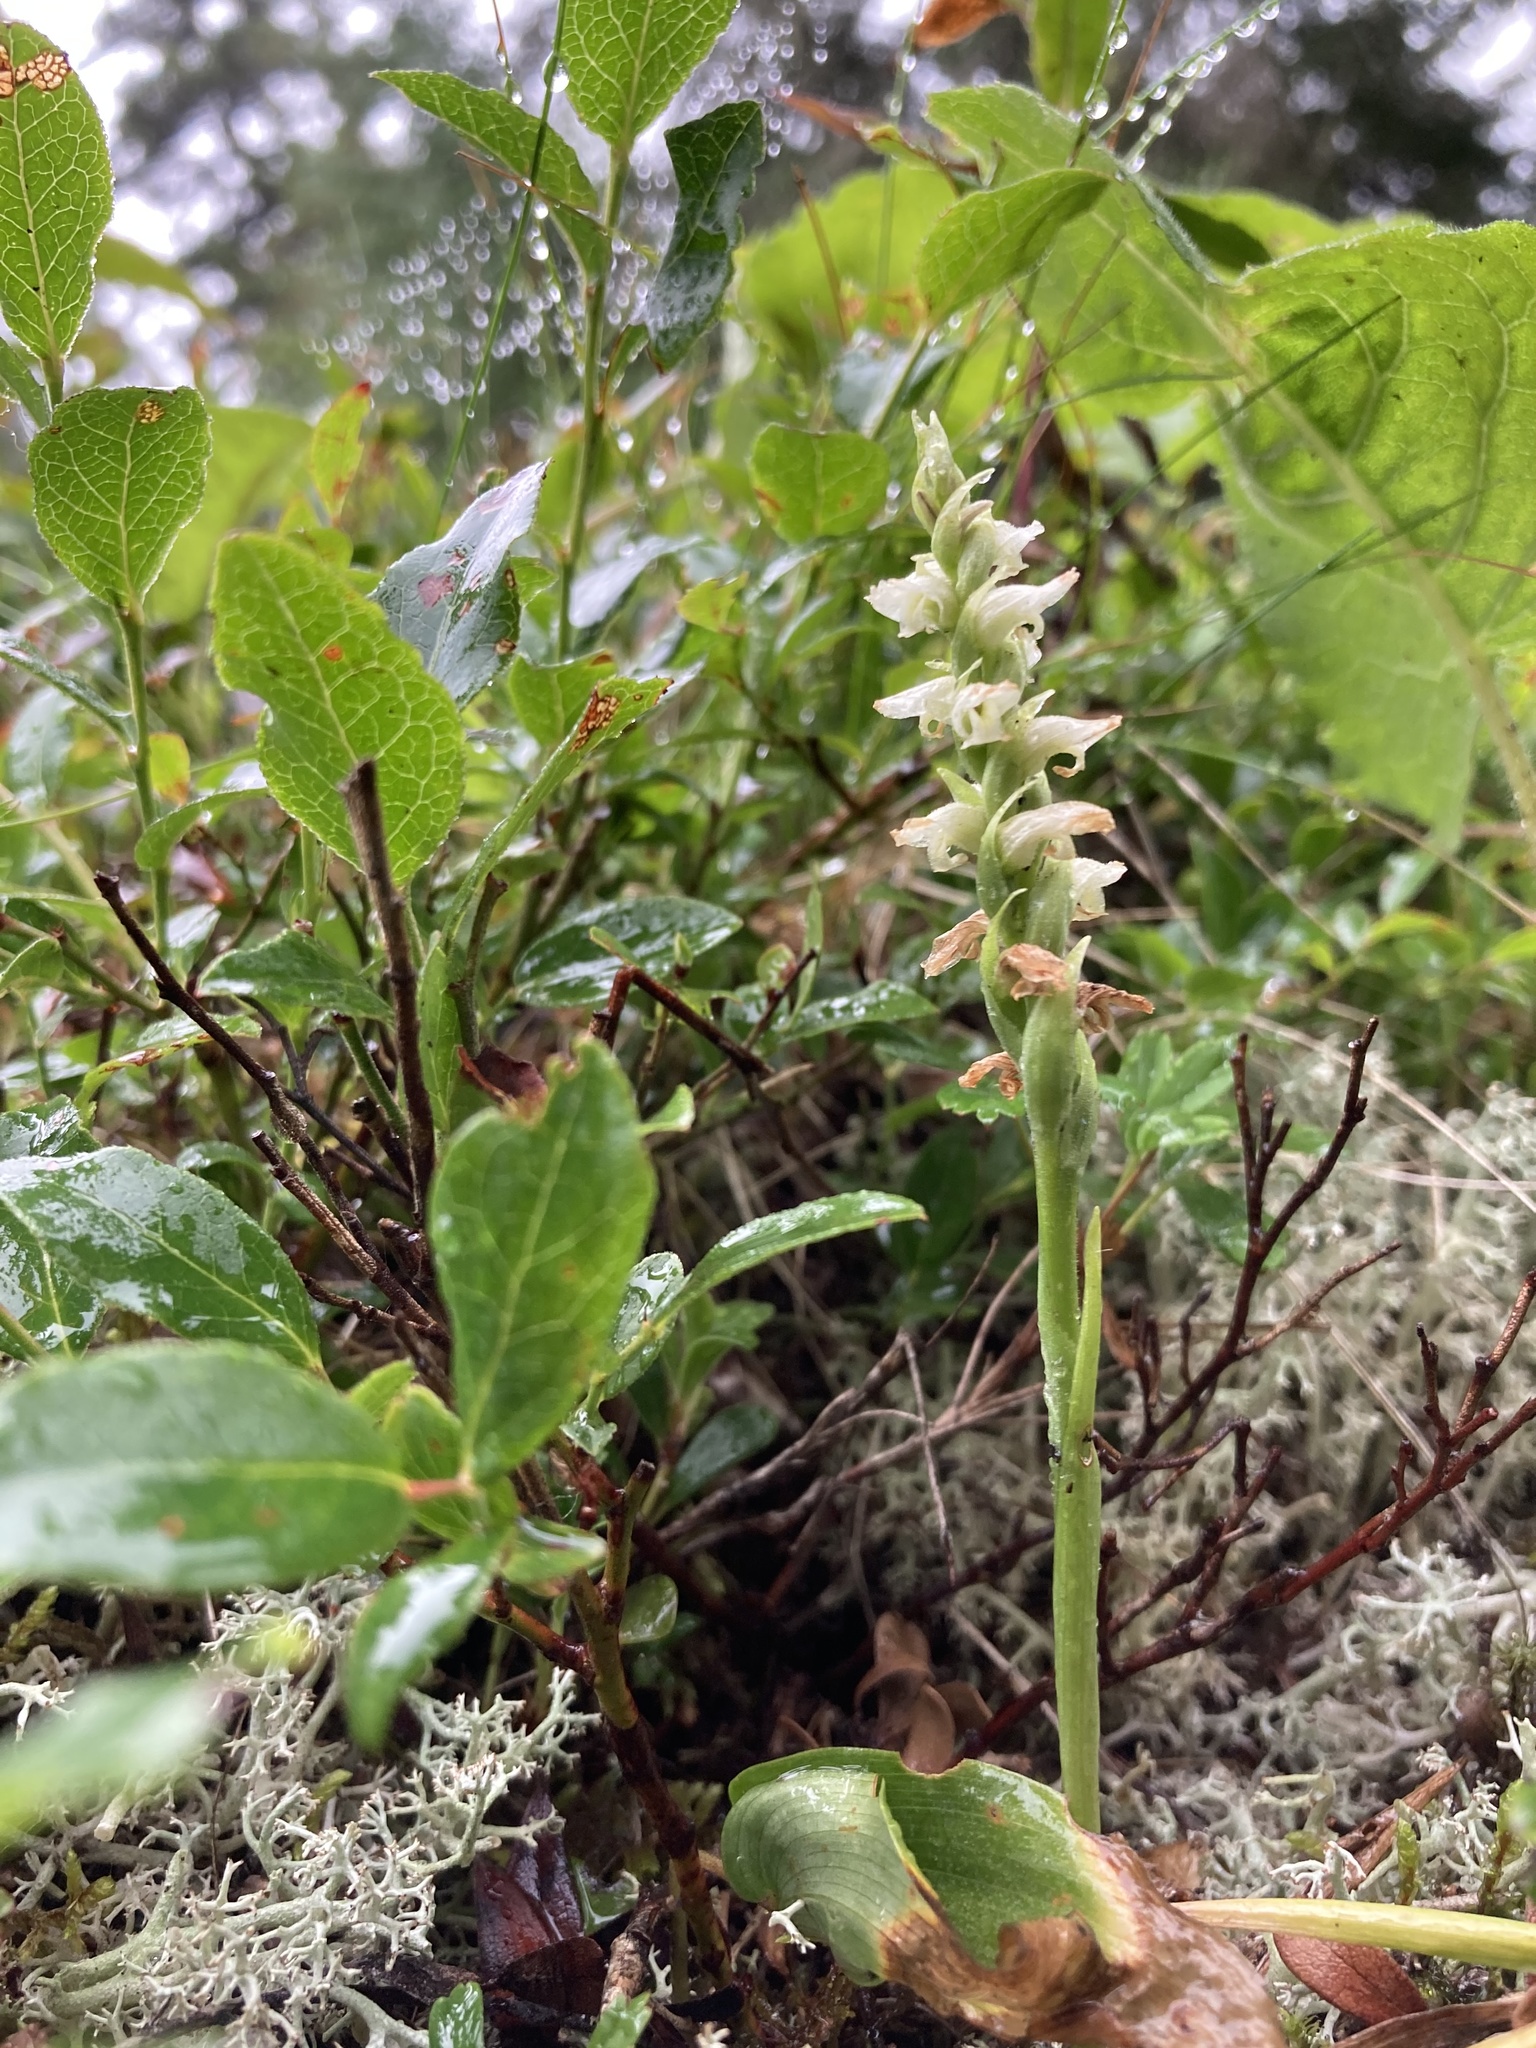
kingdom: Plantae
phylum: Tracheophyta
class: Liliopsida
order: Asparagales
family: Orchidaceae
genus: Spiranthes
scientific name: Spiranthes romanzoffiana
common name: Irish lady's-tresses
